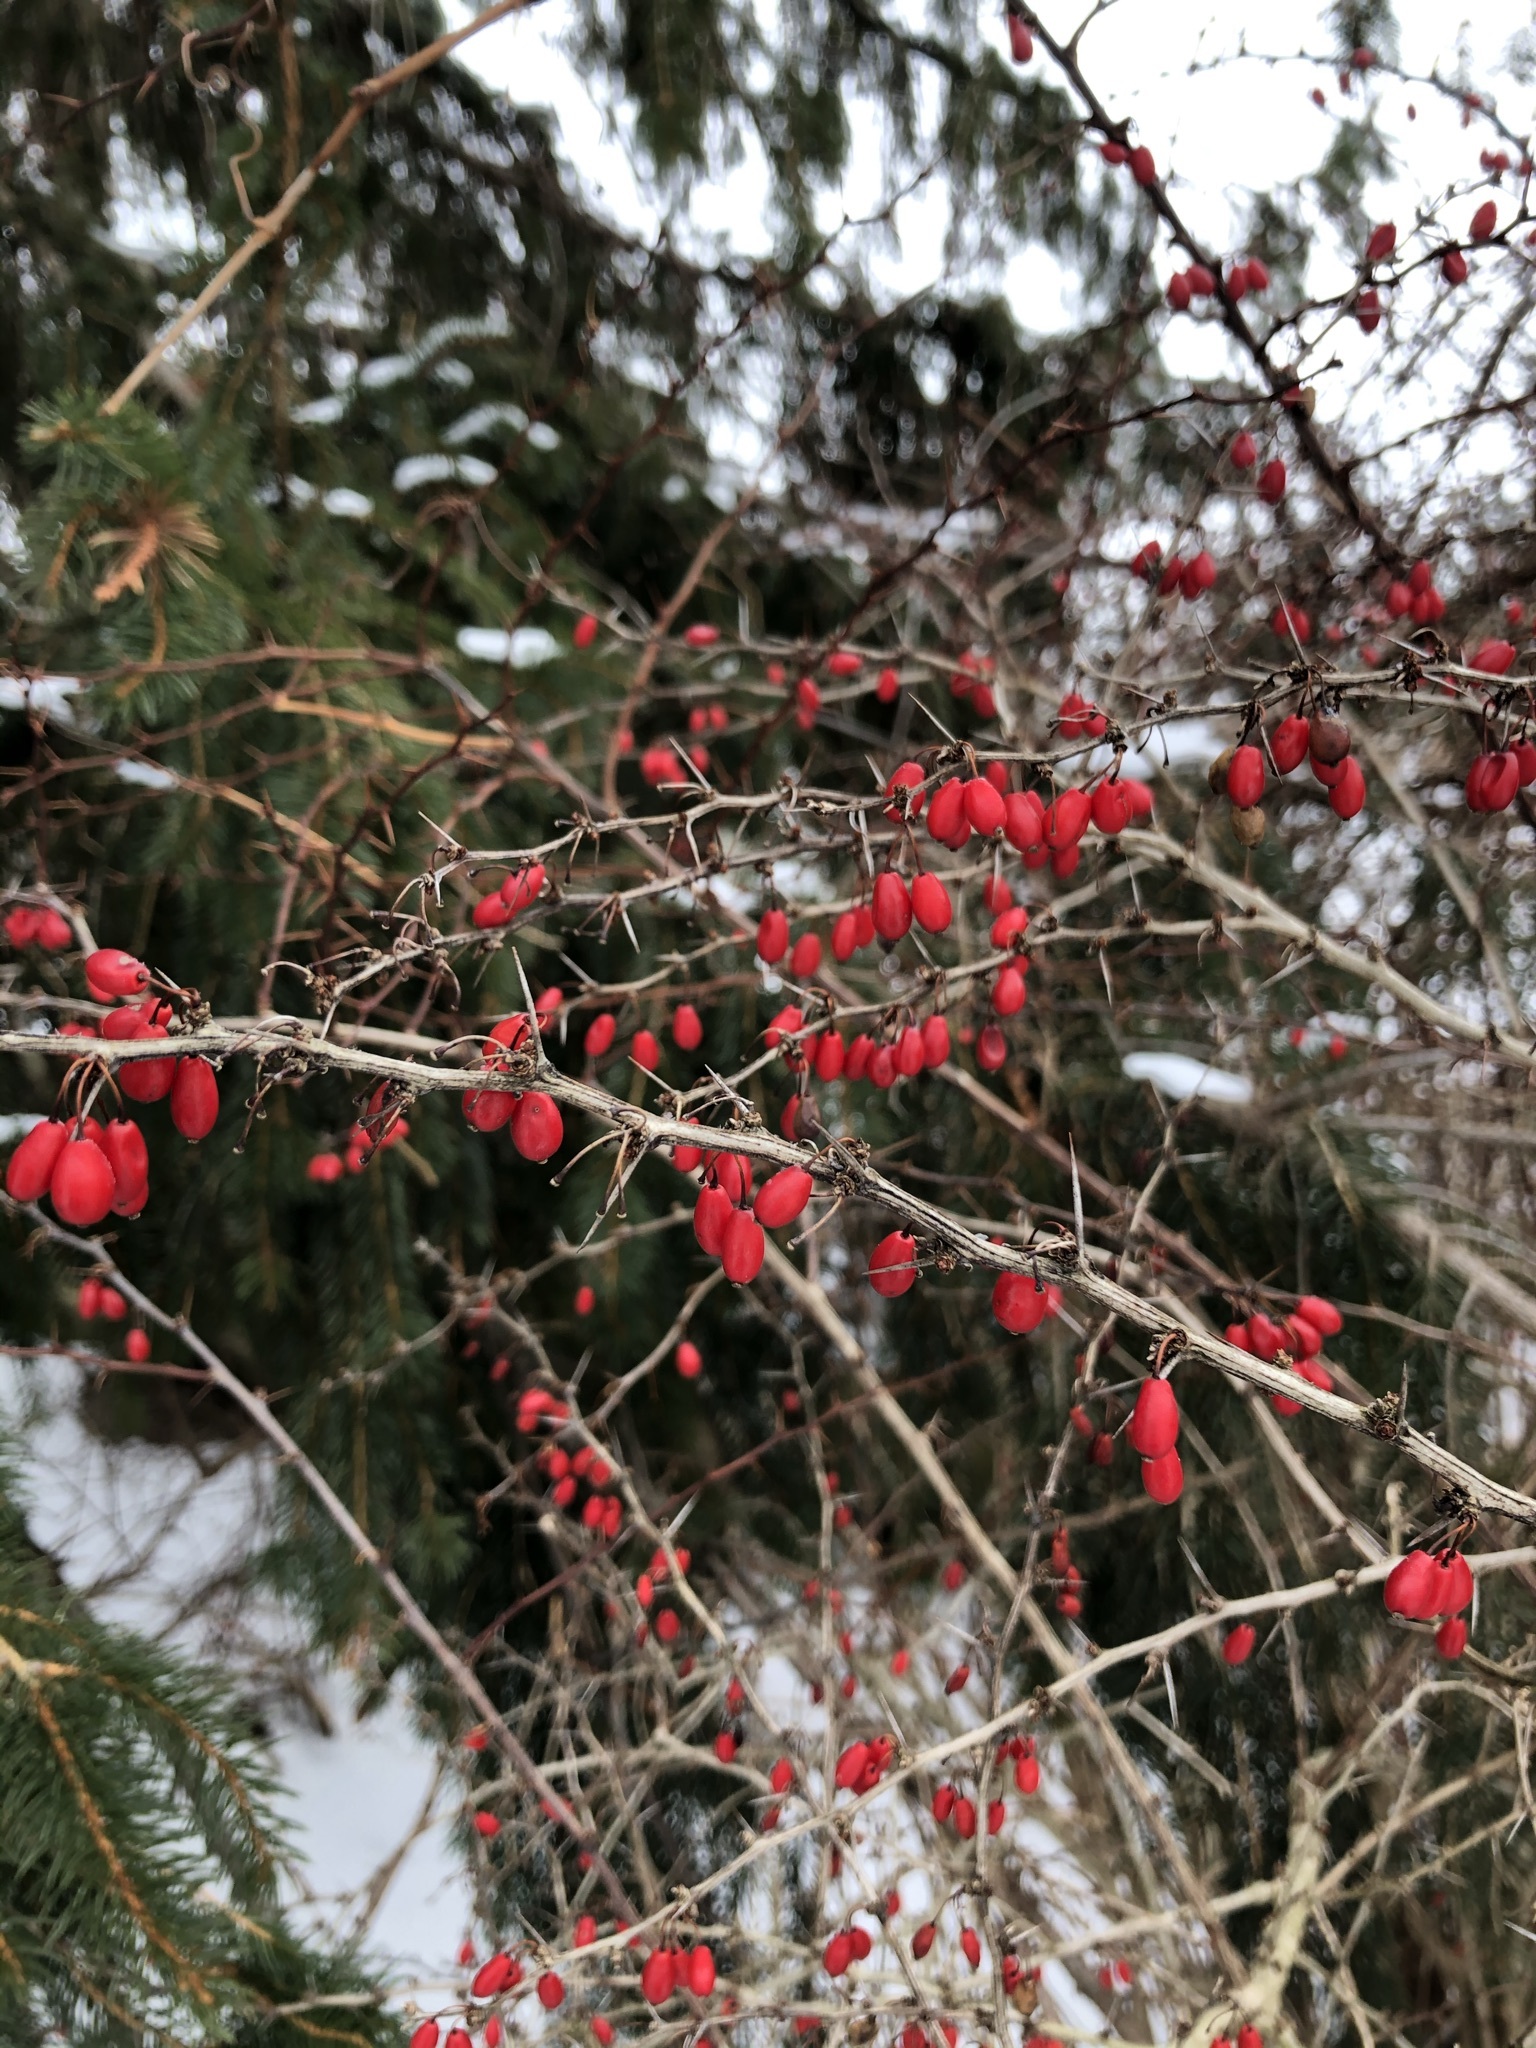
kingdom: Plantae
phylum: Tracheophyta
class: Magnoliopsida
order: Ranunculales
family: Berberidaceae
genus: Berberis
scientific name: Berberis thunbergii
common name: Japanese barberry
